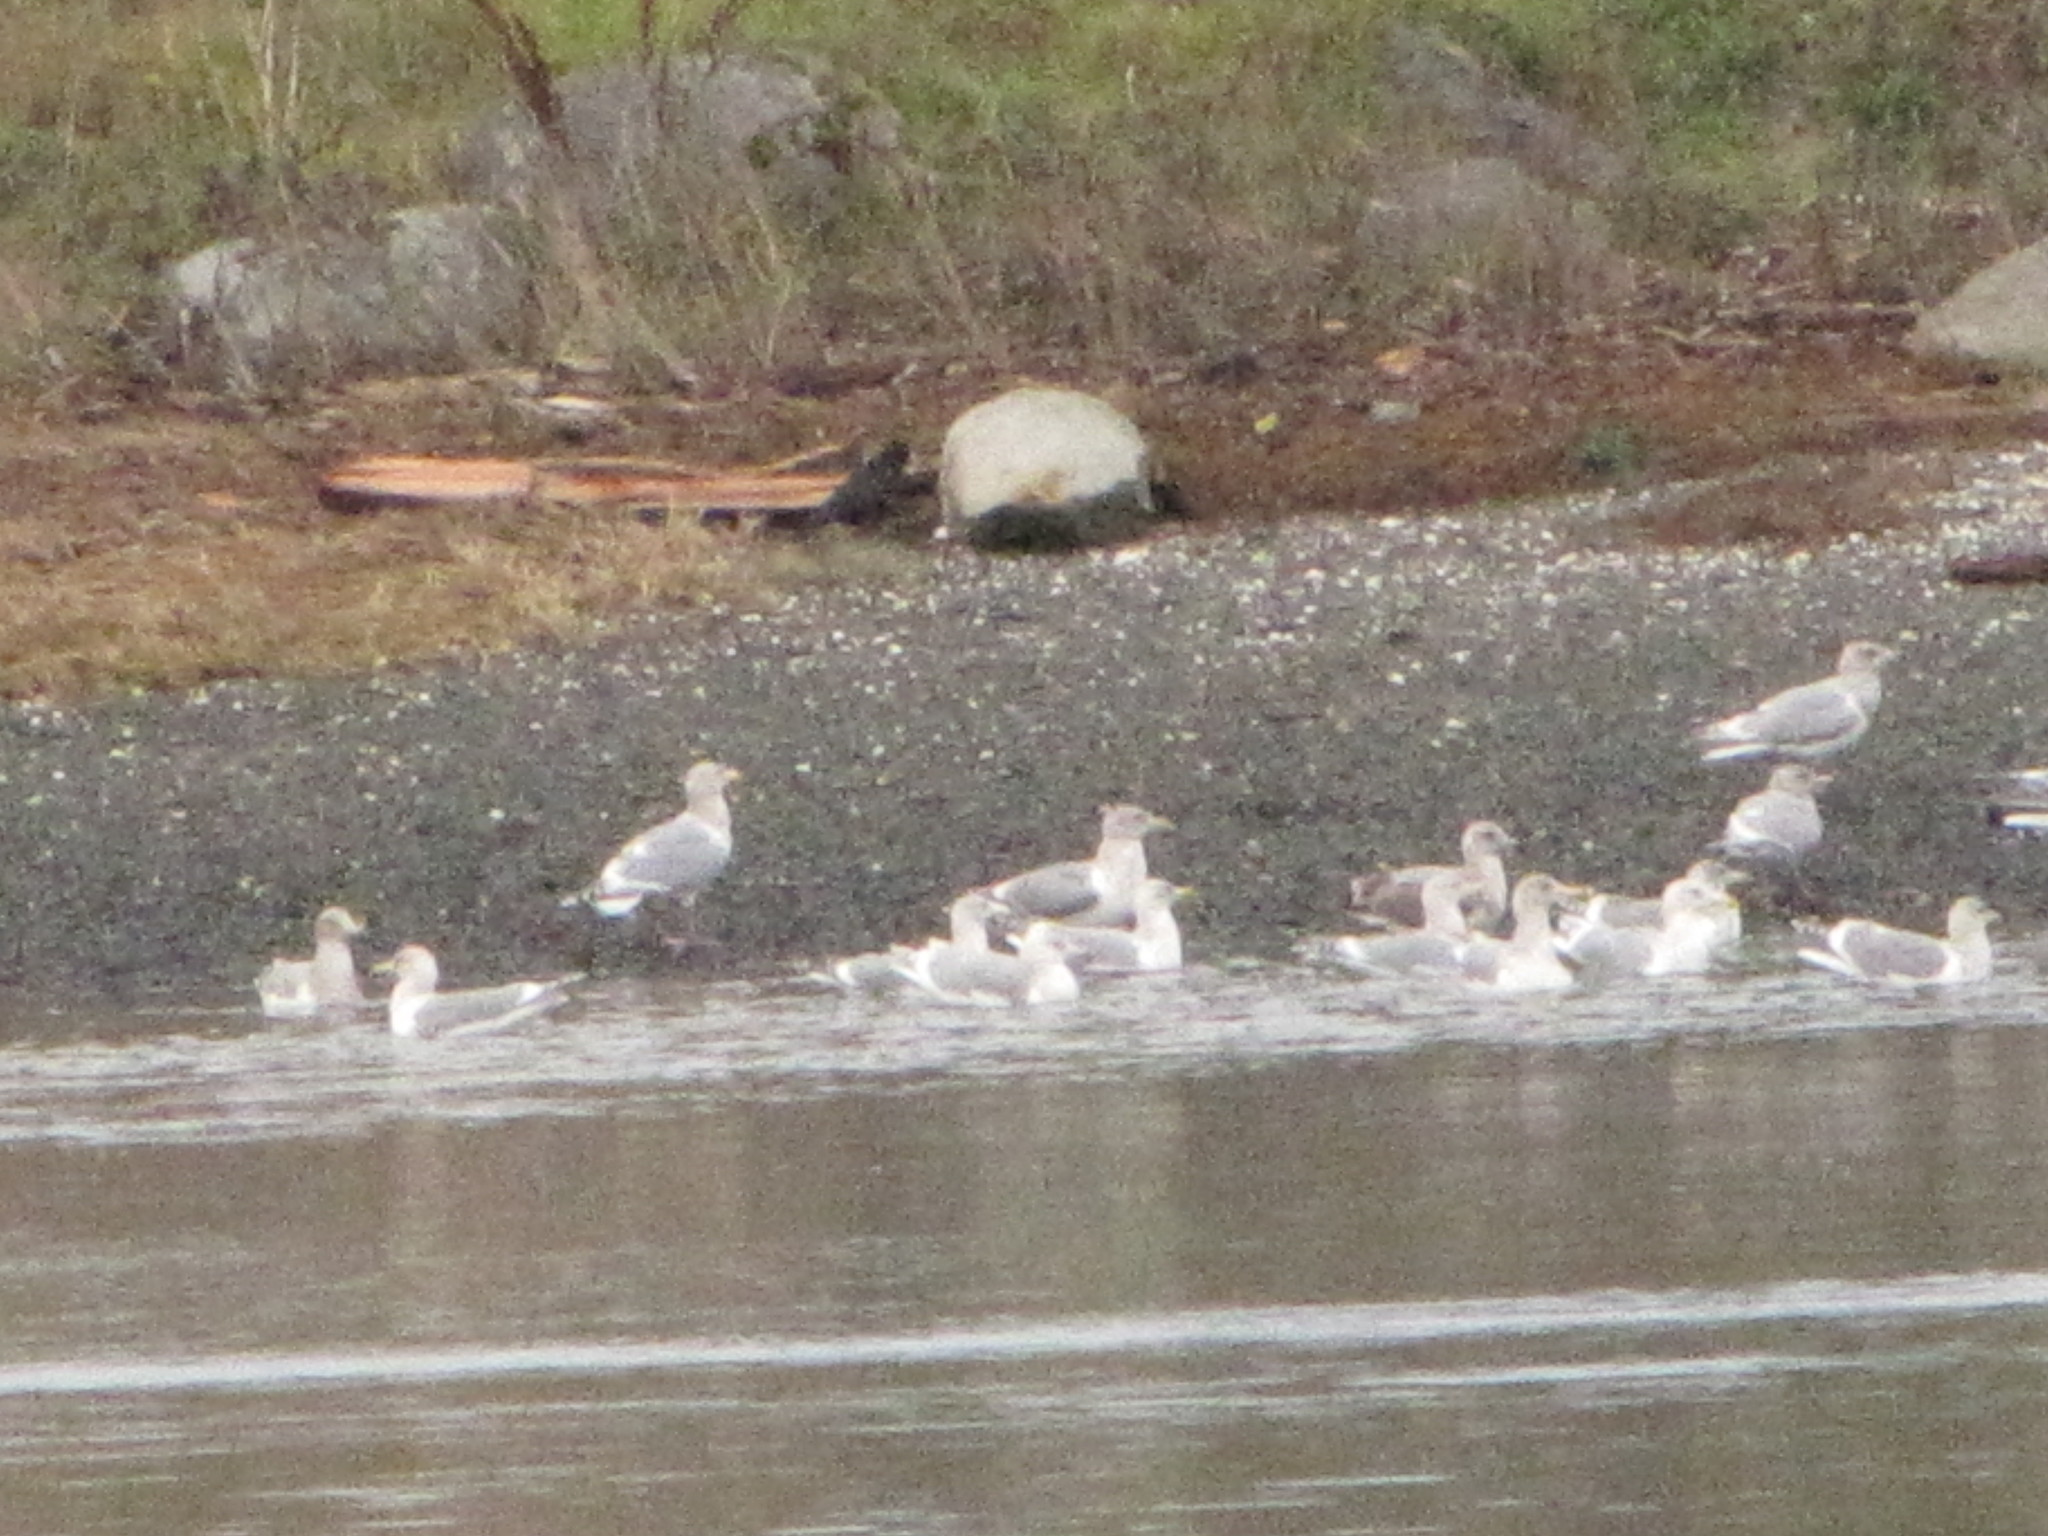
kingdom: Animalia
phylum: Chordata
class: Aves
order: Charadriiformes
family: Laridae
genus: Larus
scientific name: Larus glaucescens
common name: Glaucous-winged gull
